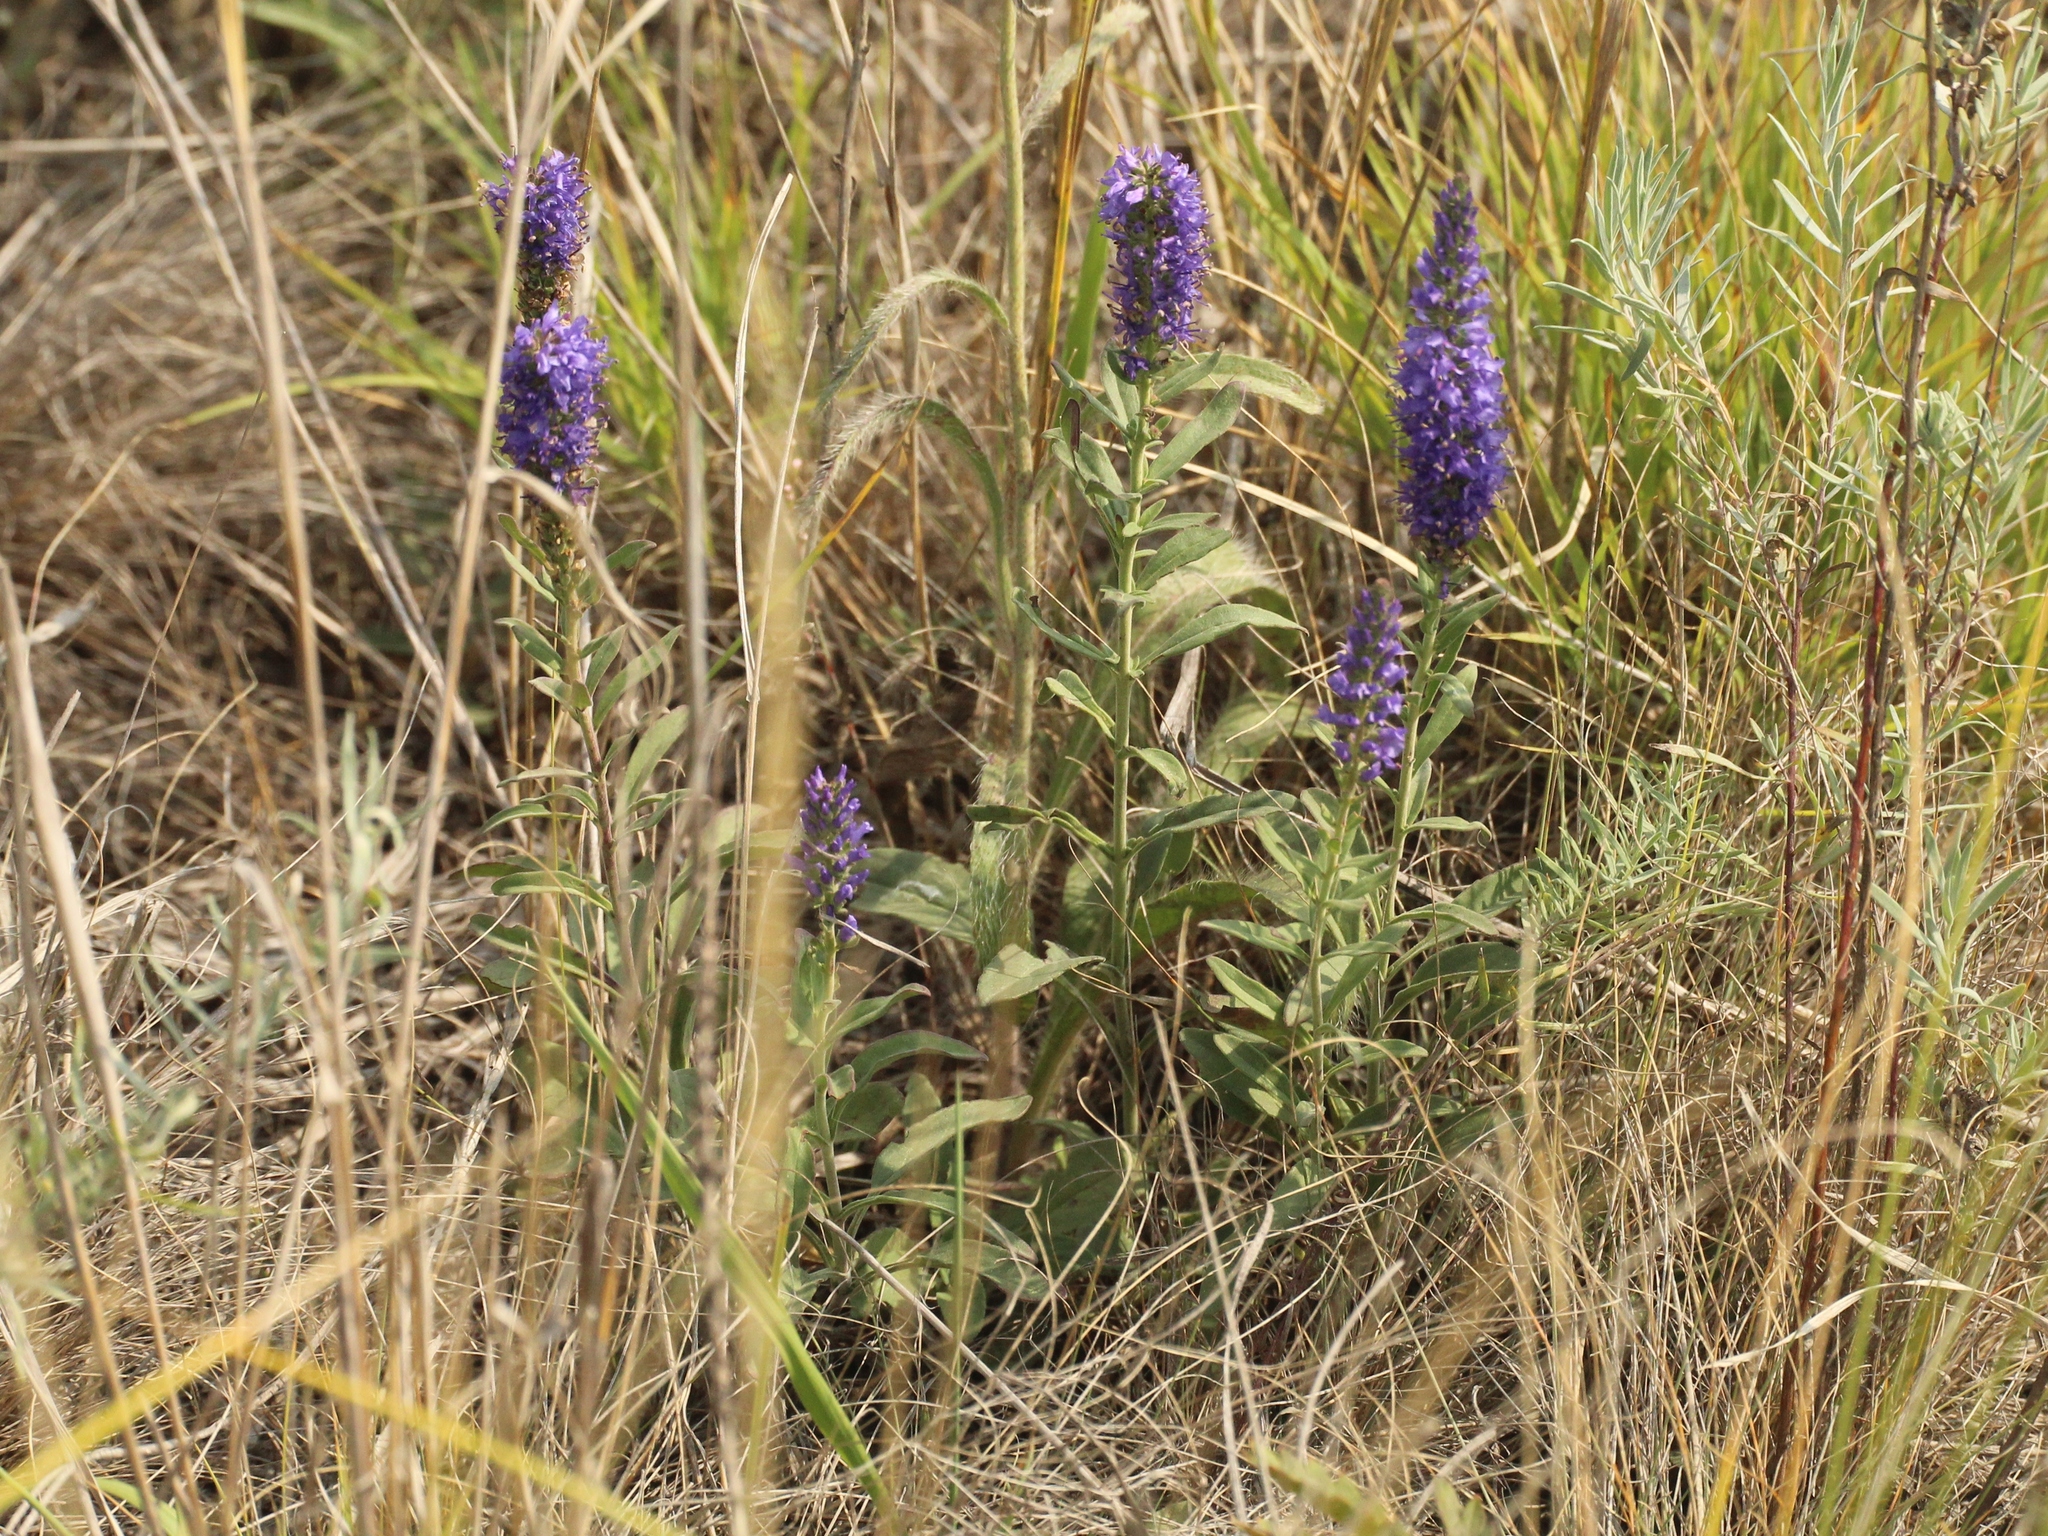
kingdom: Plantae
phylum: Tracheophyta
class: Magnoliopsida
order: Lamiales
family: Plantaginaceae
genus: Veronica
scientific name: Veronica spicata
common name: Spiked speedwell
